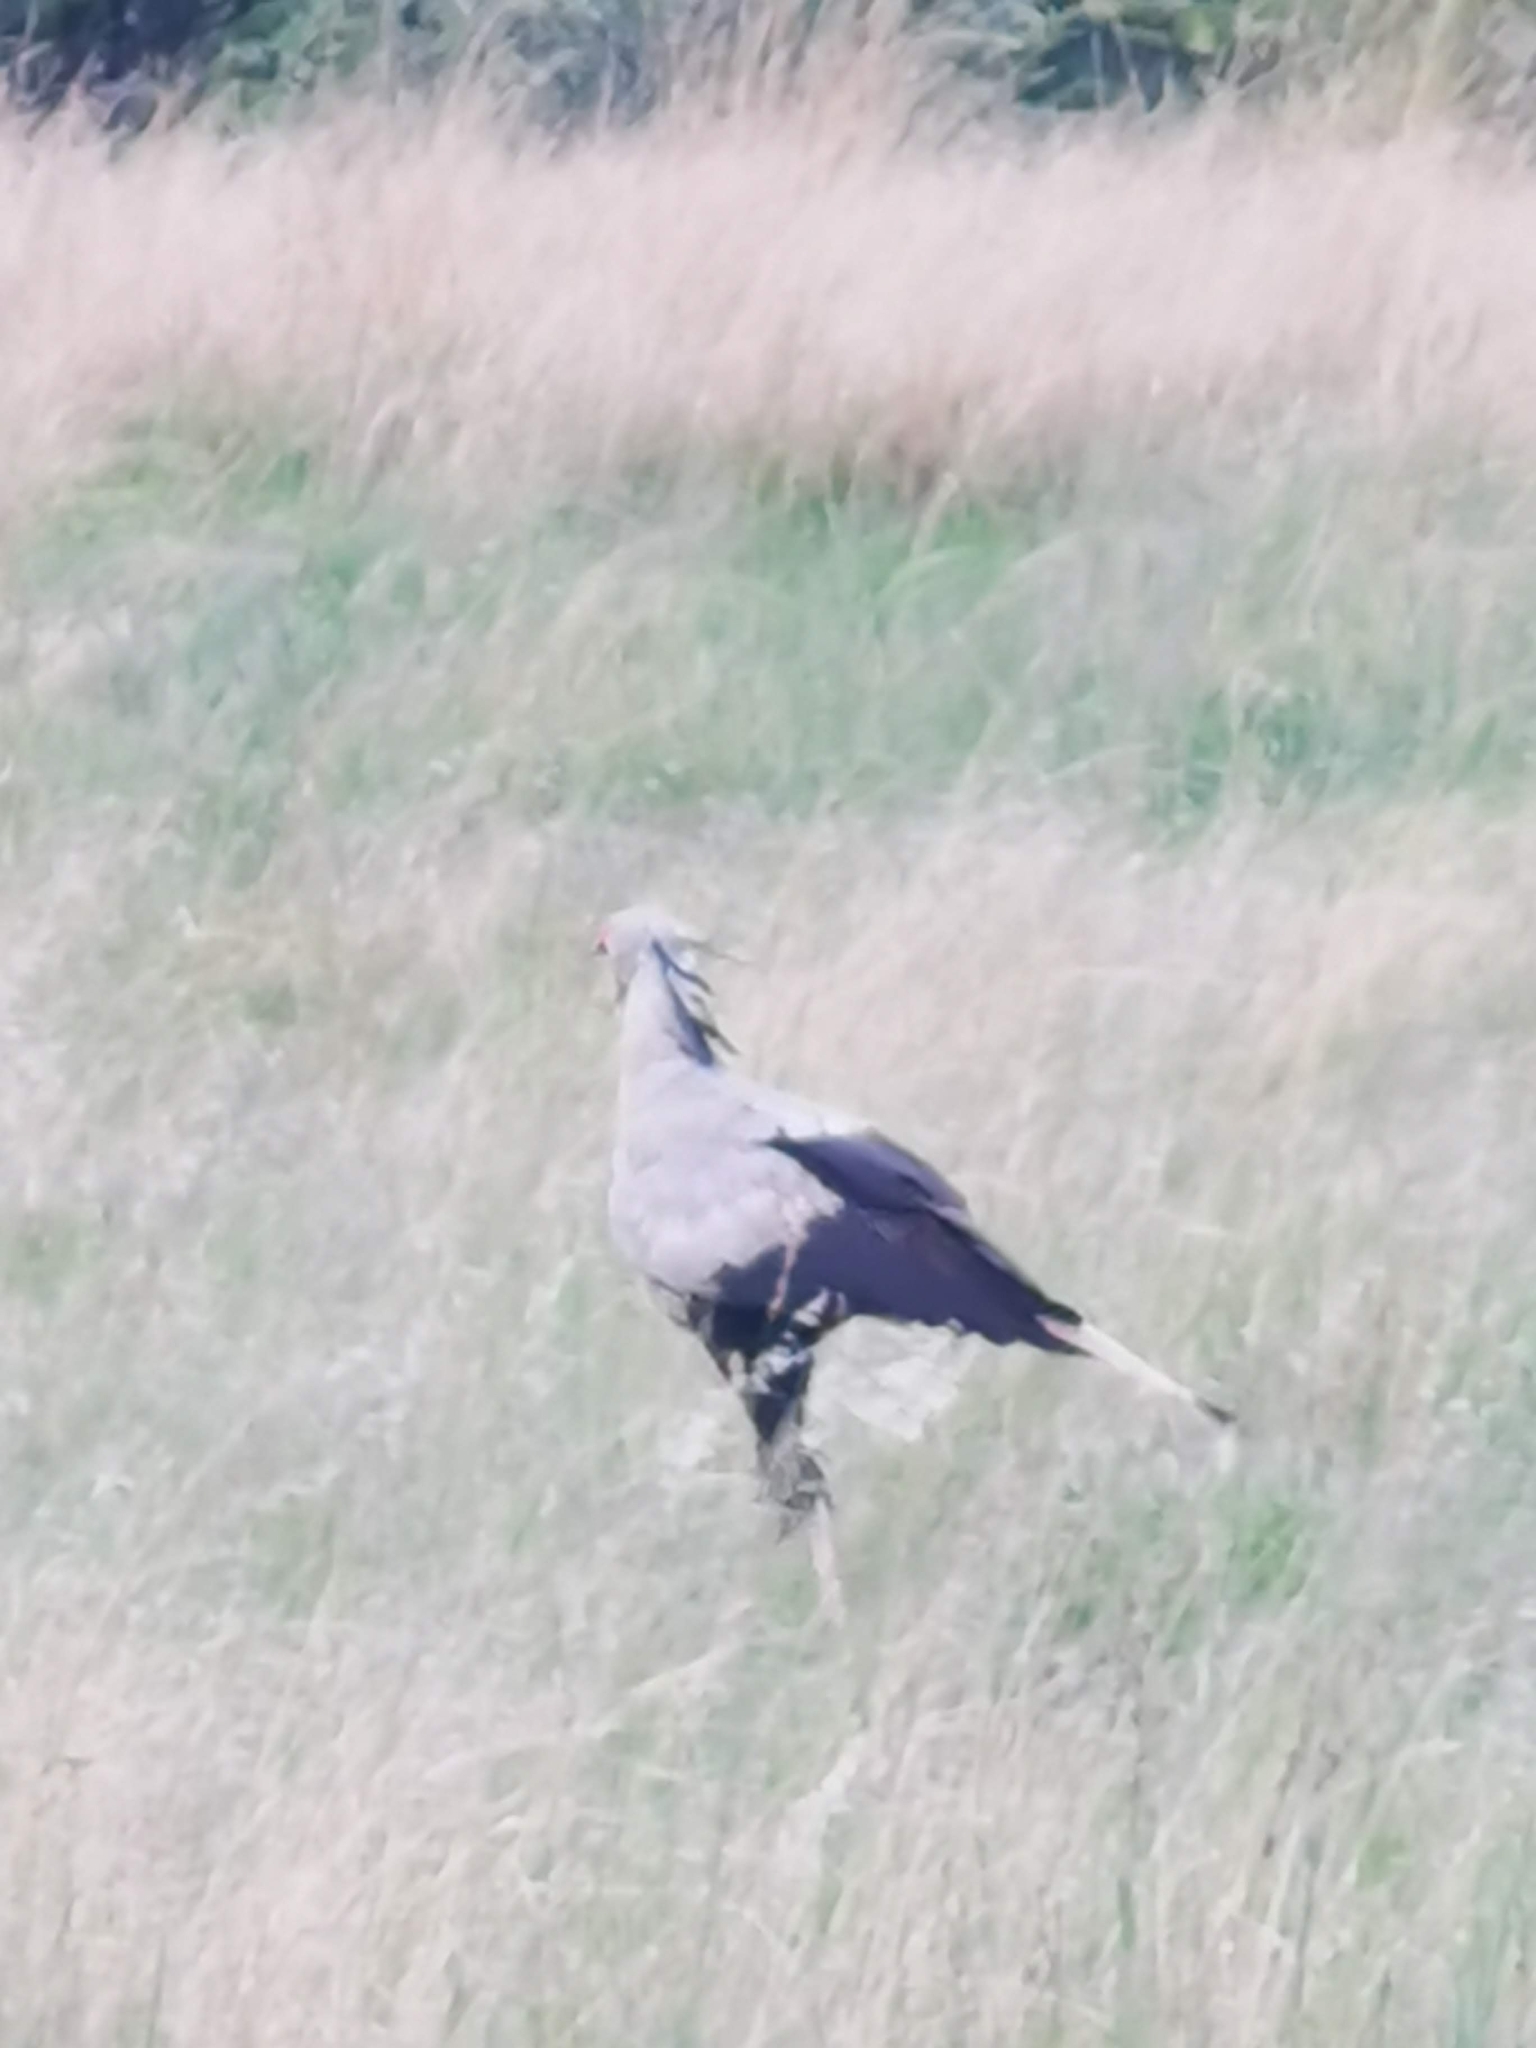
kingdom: Animalia
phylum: Chordata
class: Aves
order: Accipitriformes
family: Sagittariidae
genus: Sagittarius
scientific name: Sagittarius serpentarius
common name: Secretarybird
